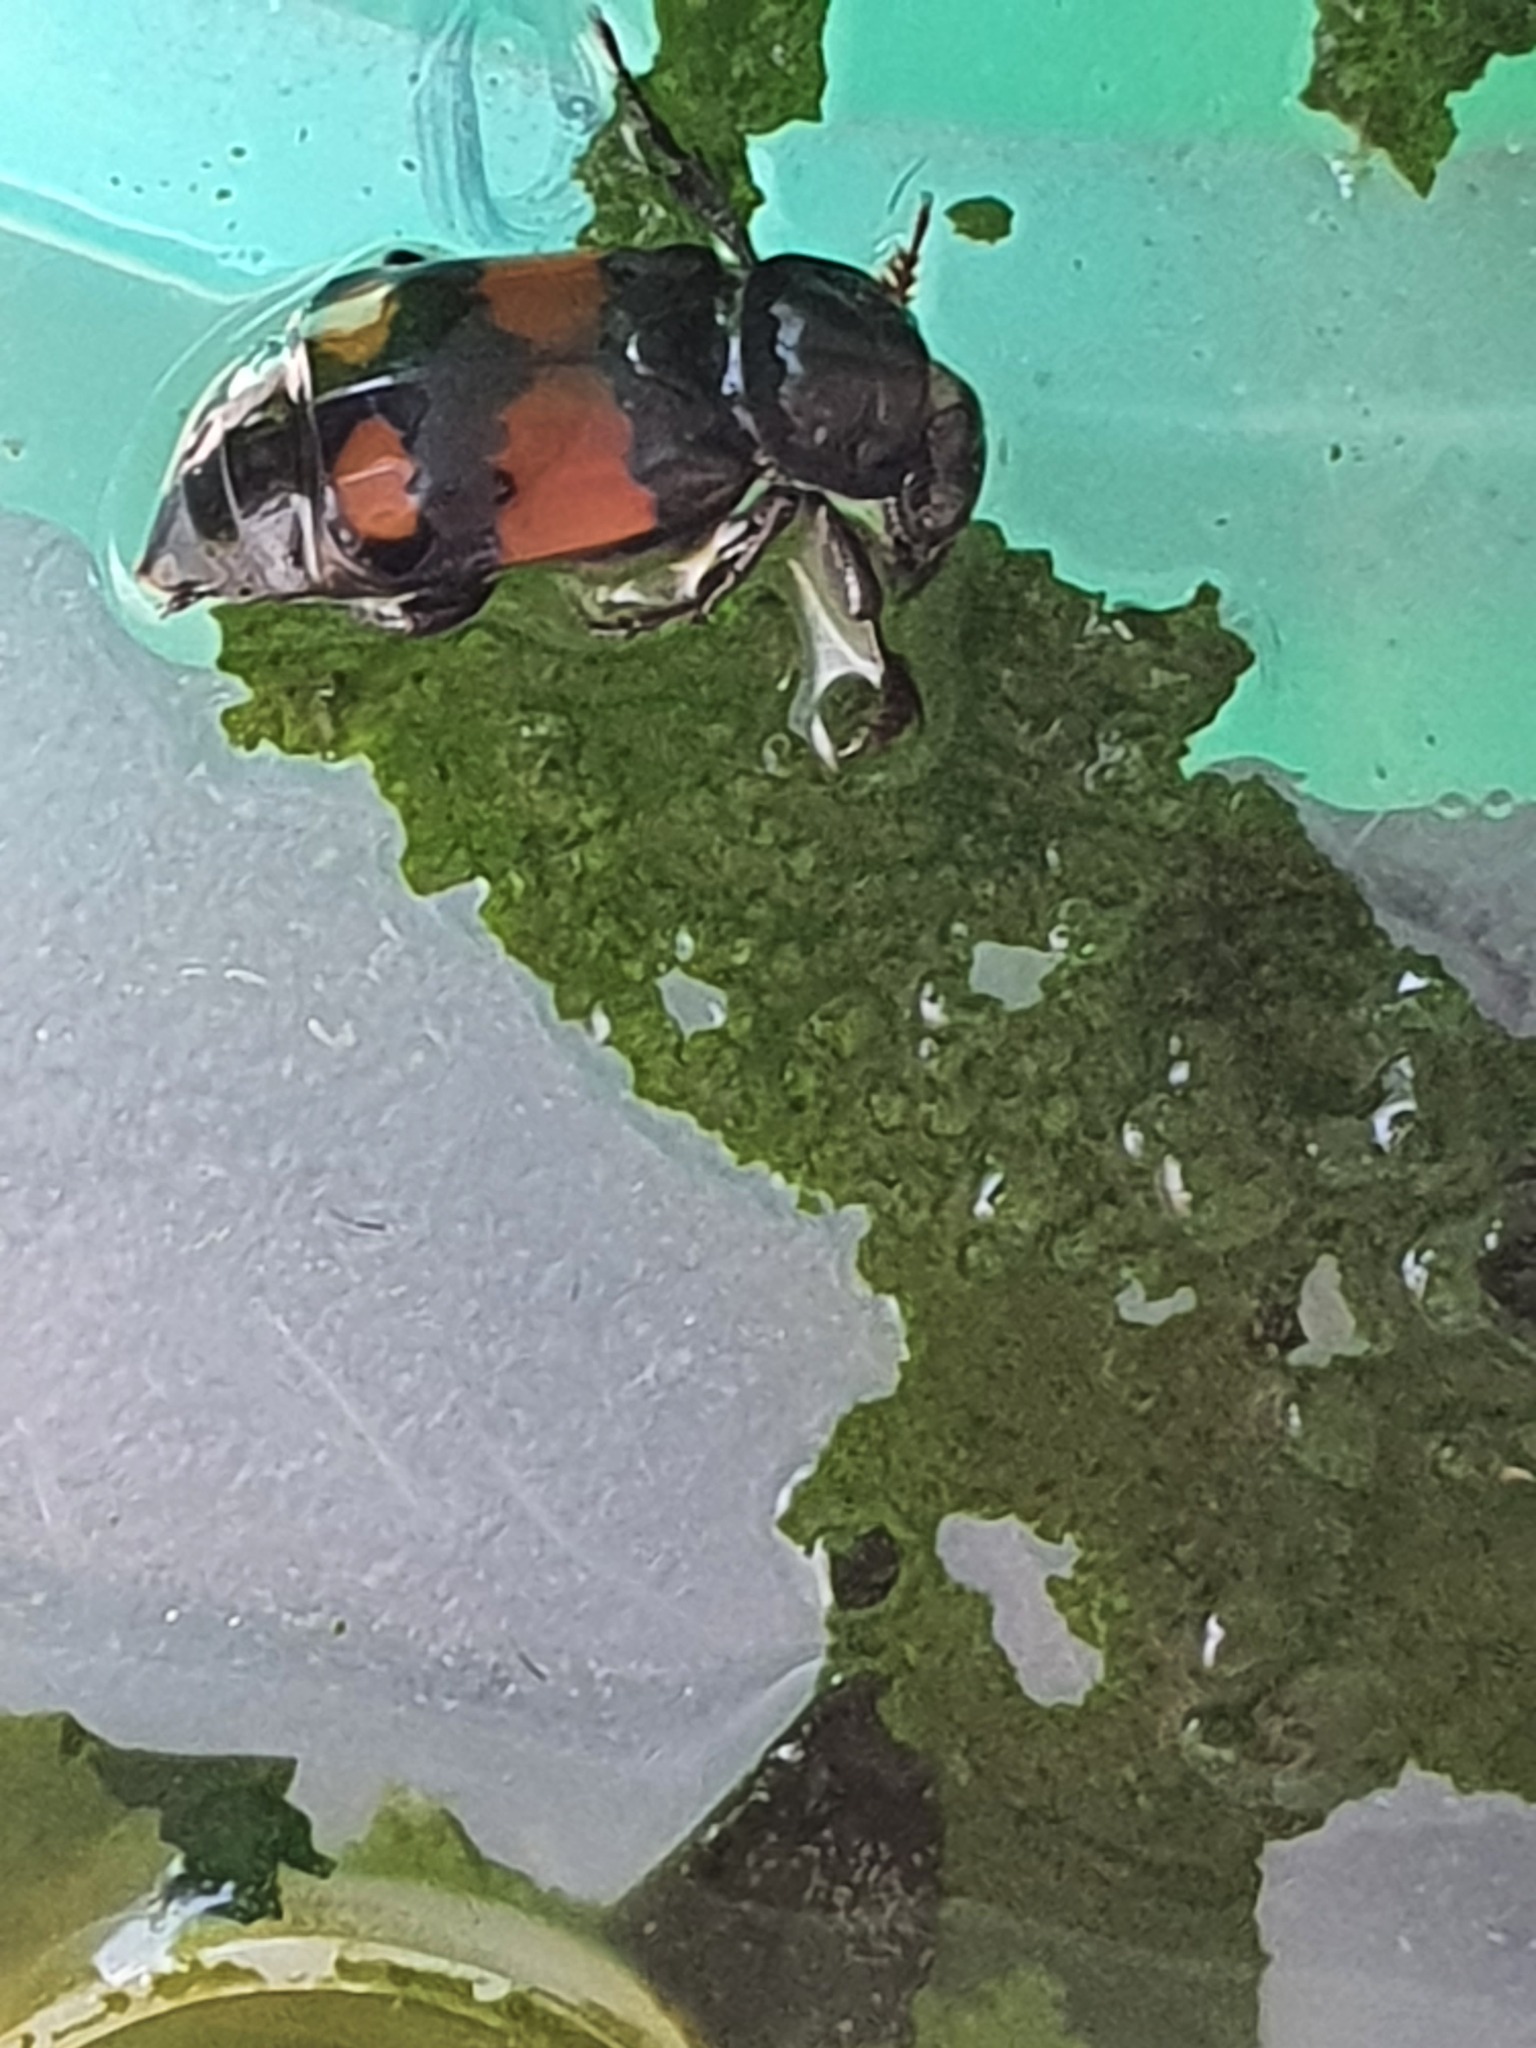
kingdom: Animalia
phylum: Arthropoda
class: Insecta
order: Coleoptera
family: Staphylinidae
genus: Nicrophorus
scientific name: Nicrophorus vespilloides
